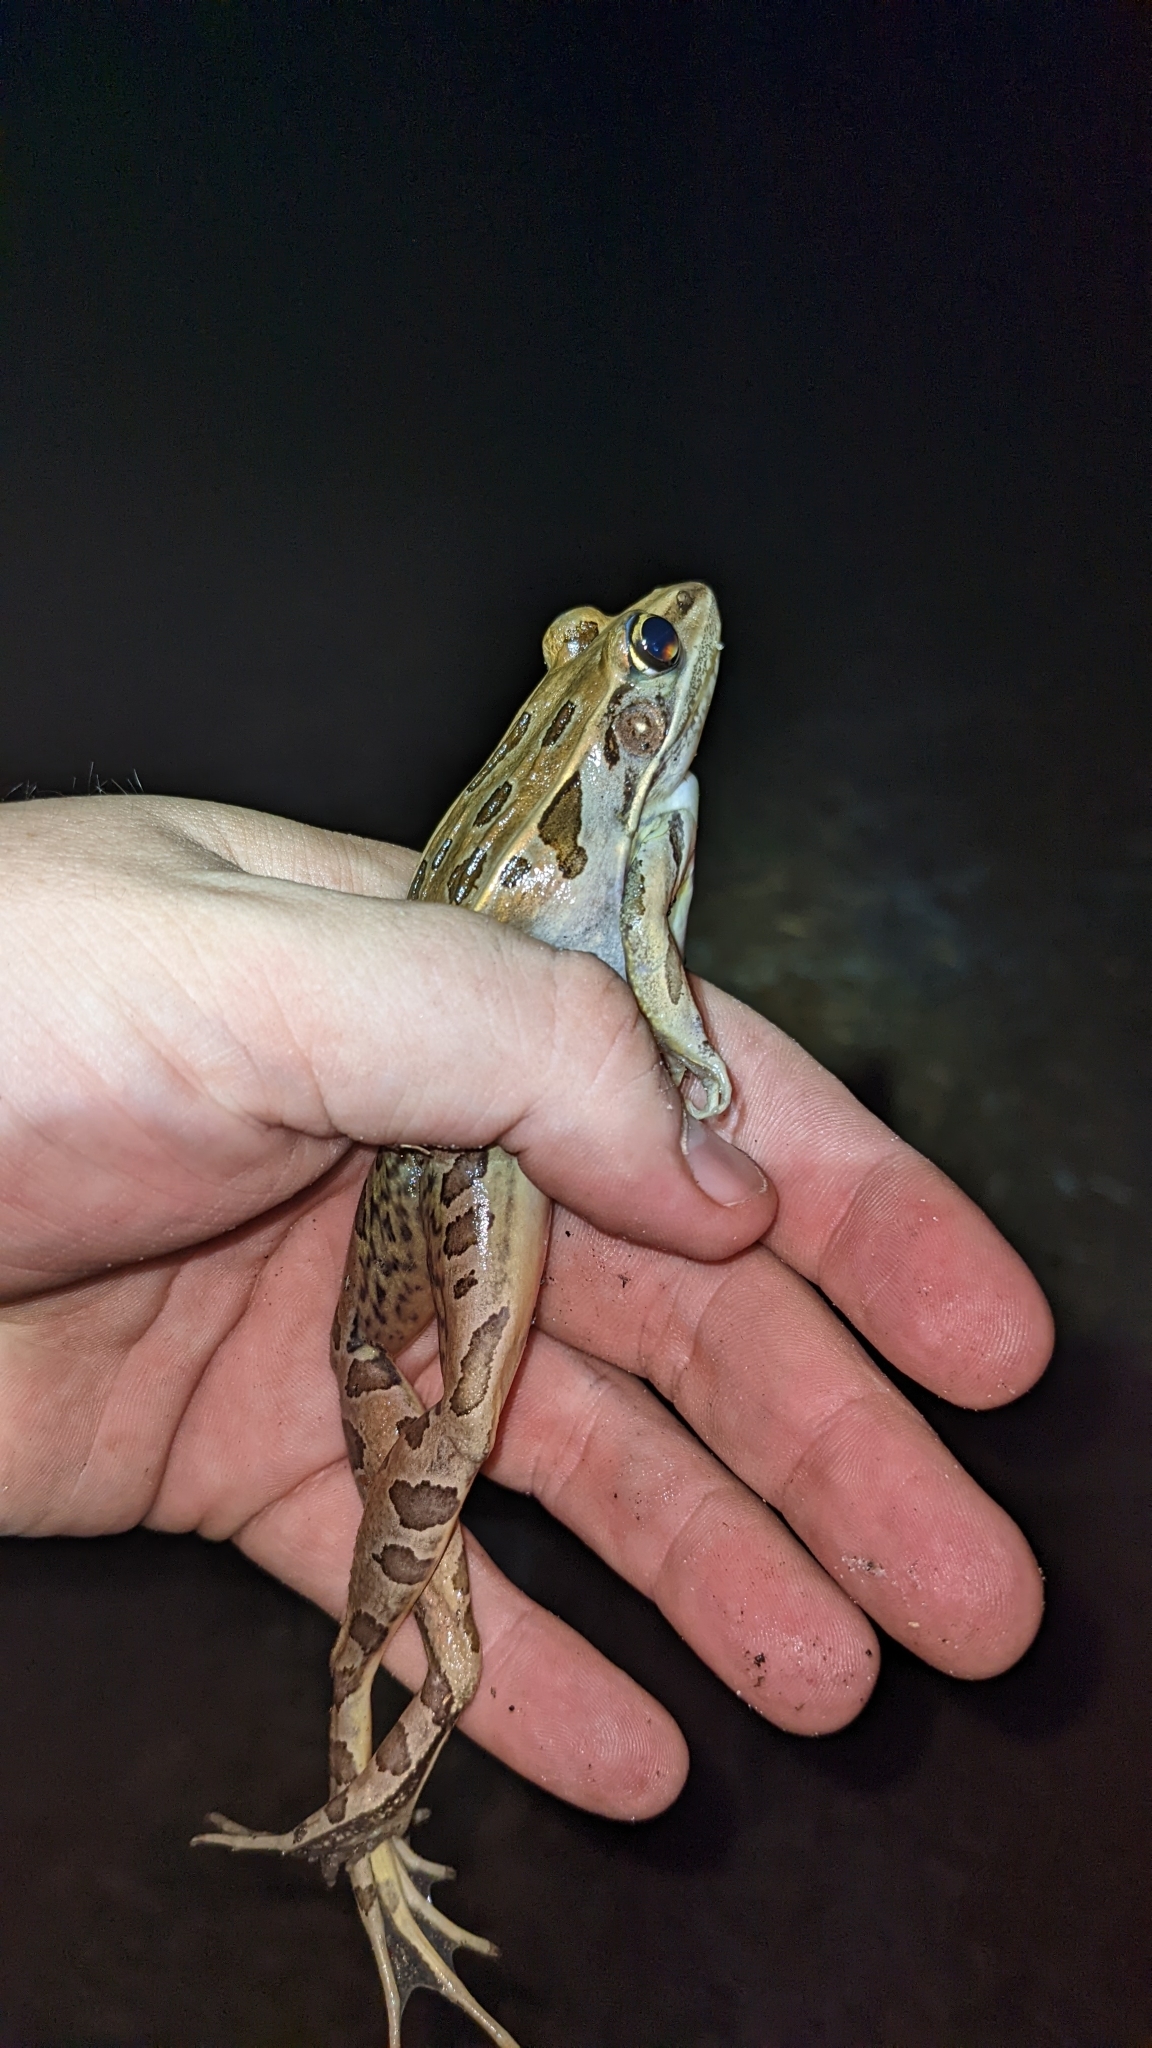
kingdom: Animalia
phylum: Chordata
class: Amphibia
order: Anura
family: Ranidae
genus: Lithobates
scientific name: Lithobates sphenocephalus
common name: Southern leopard frog
